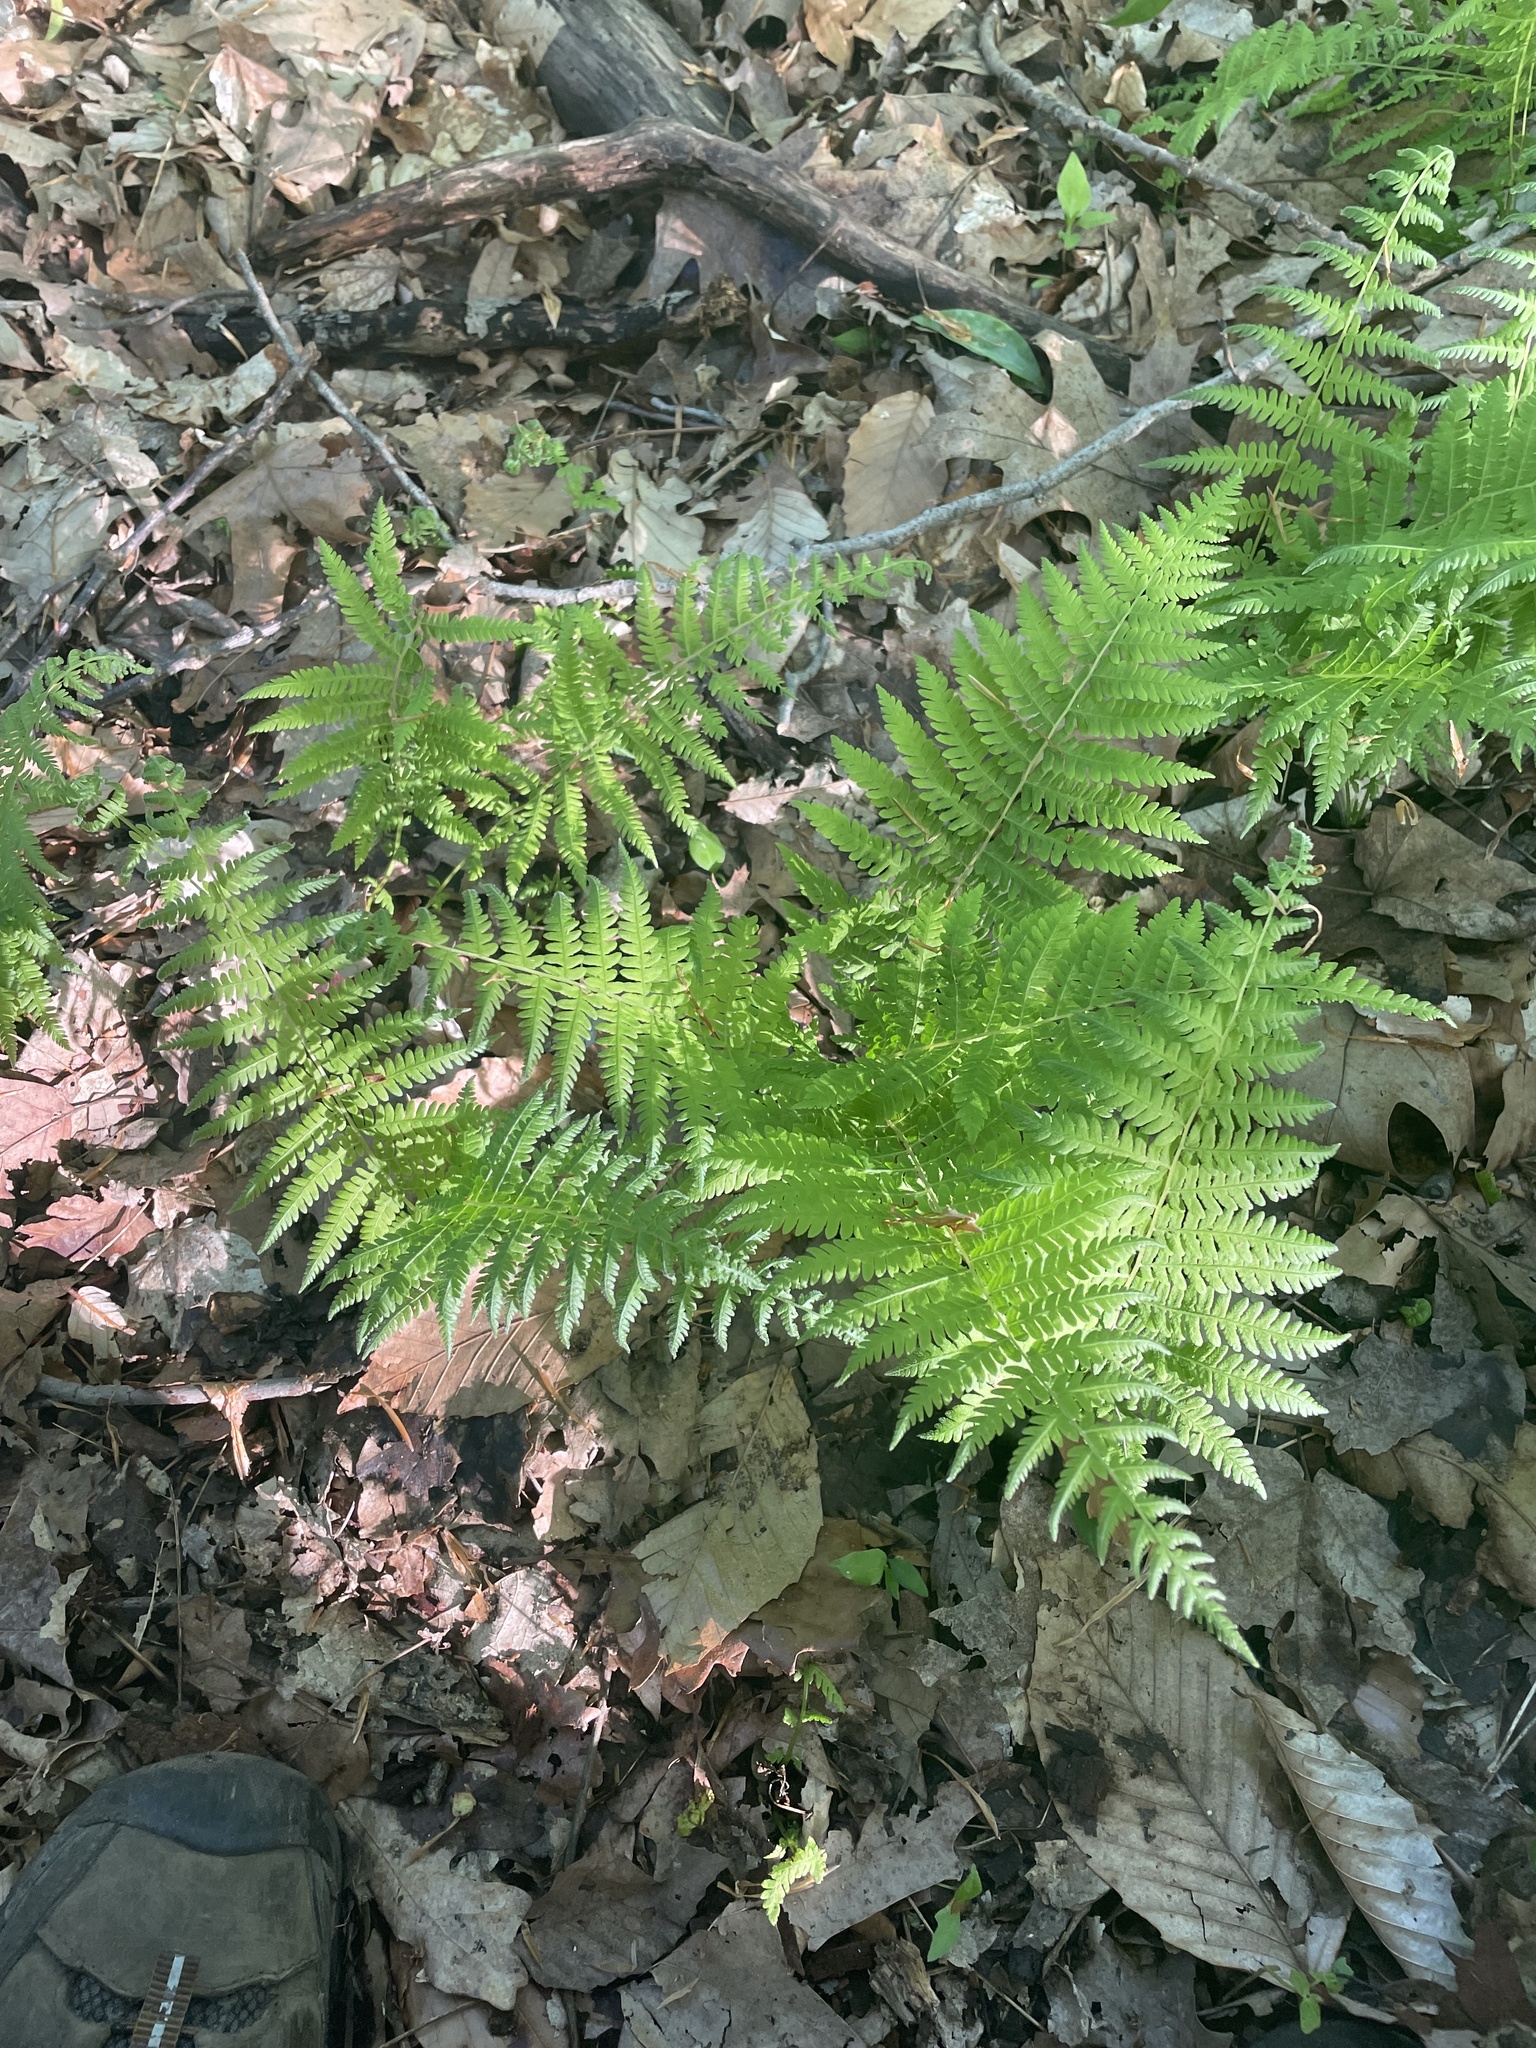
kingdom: Plantae
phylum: Tracheophyta
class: Polypodiopsida
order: Polypodiales
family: Thelypteridaceae
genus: Amauropelta
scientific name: Amauropelta noveboracensis
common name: New york fern
